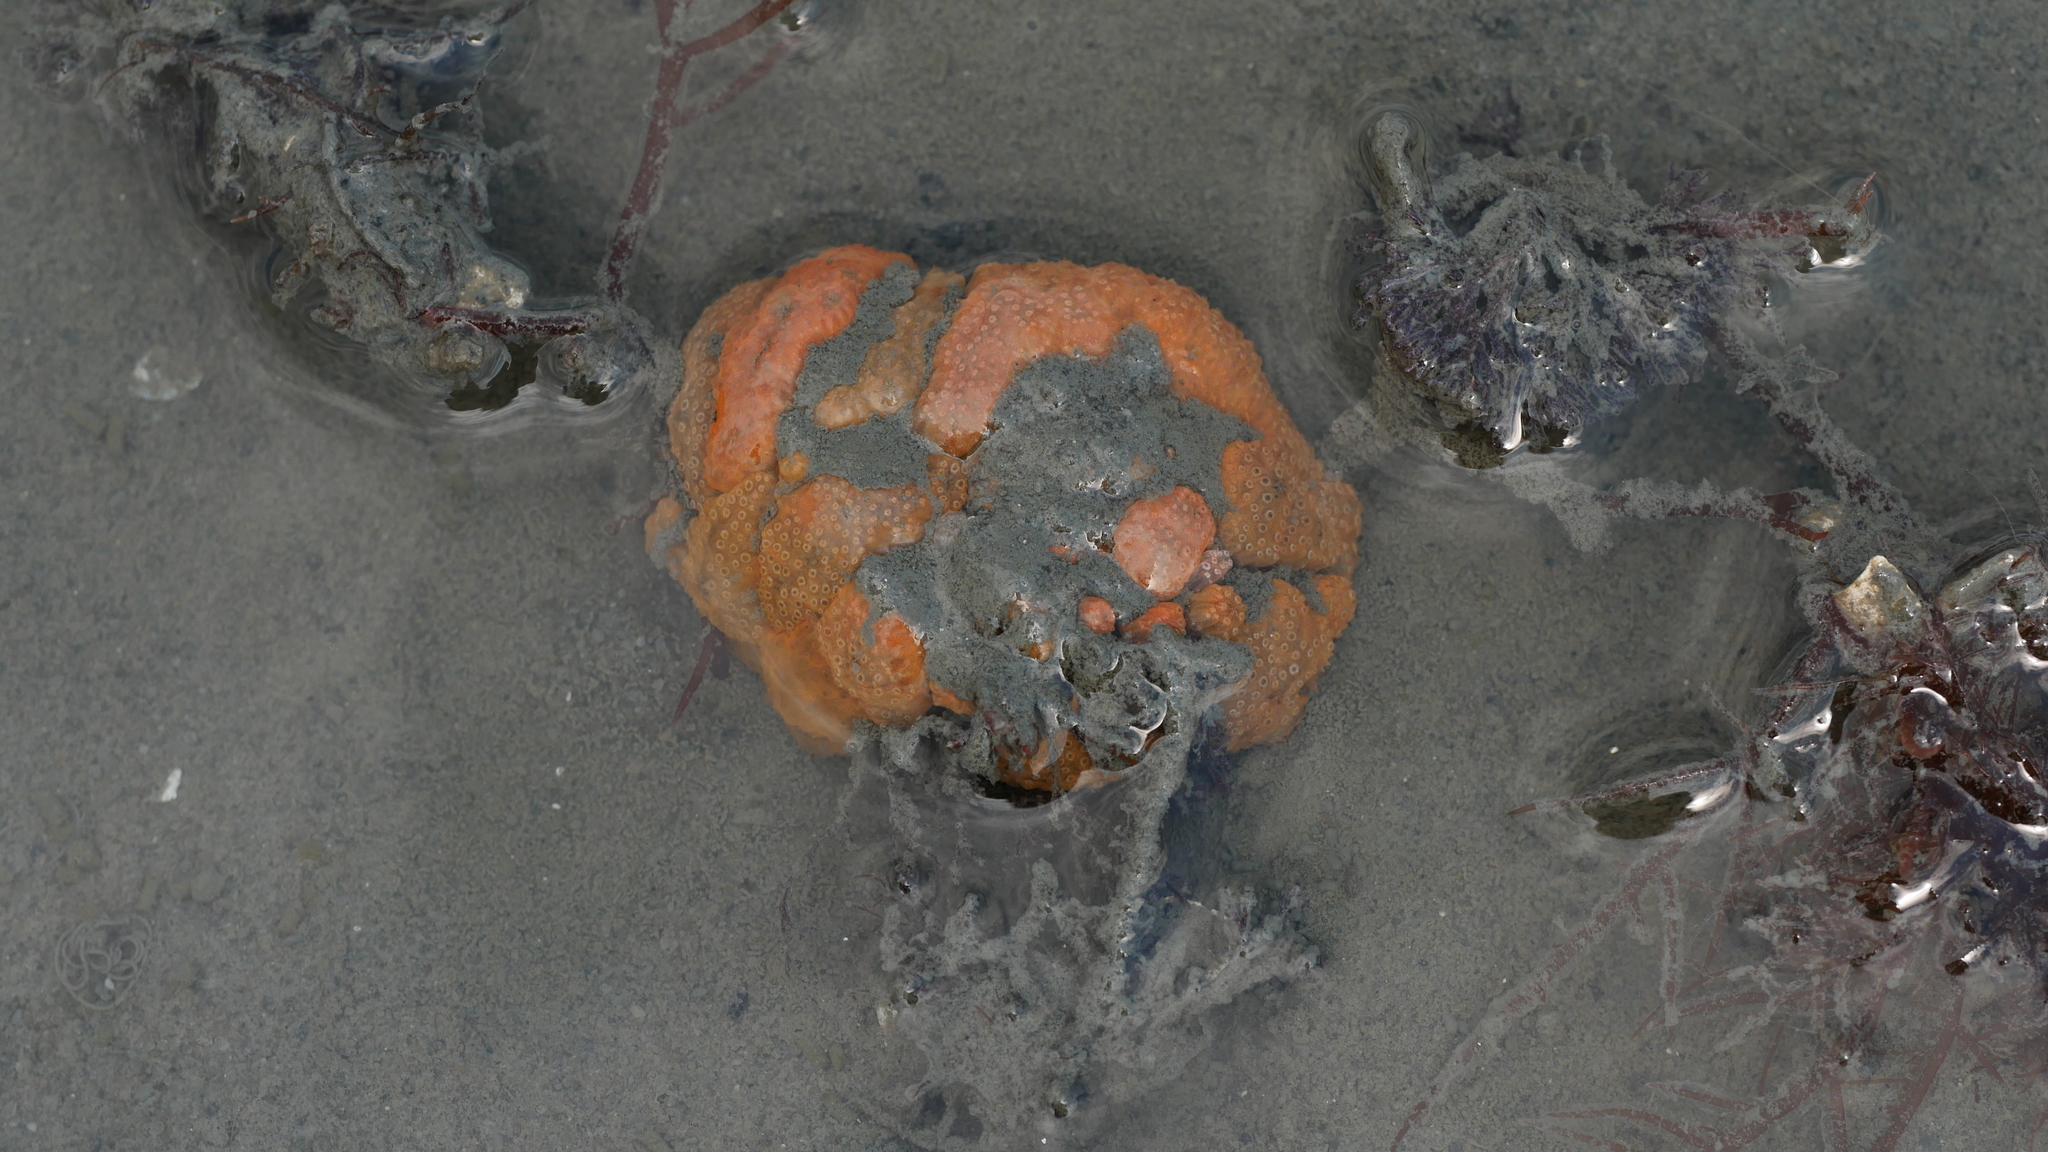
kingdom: Animalia
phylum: Chordata
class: Ascidiacea
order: Aplousobranchia
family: Polyclinidae
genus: Aplidium
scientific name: Aplidium stellatum
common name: Atlantic sea pork
